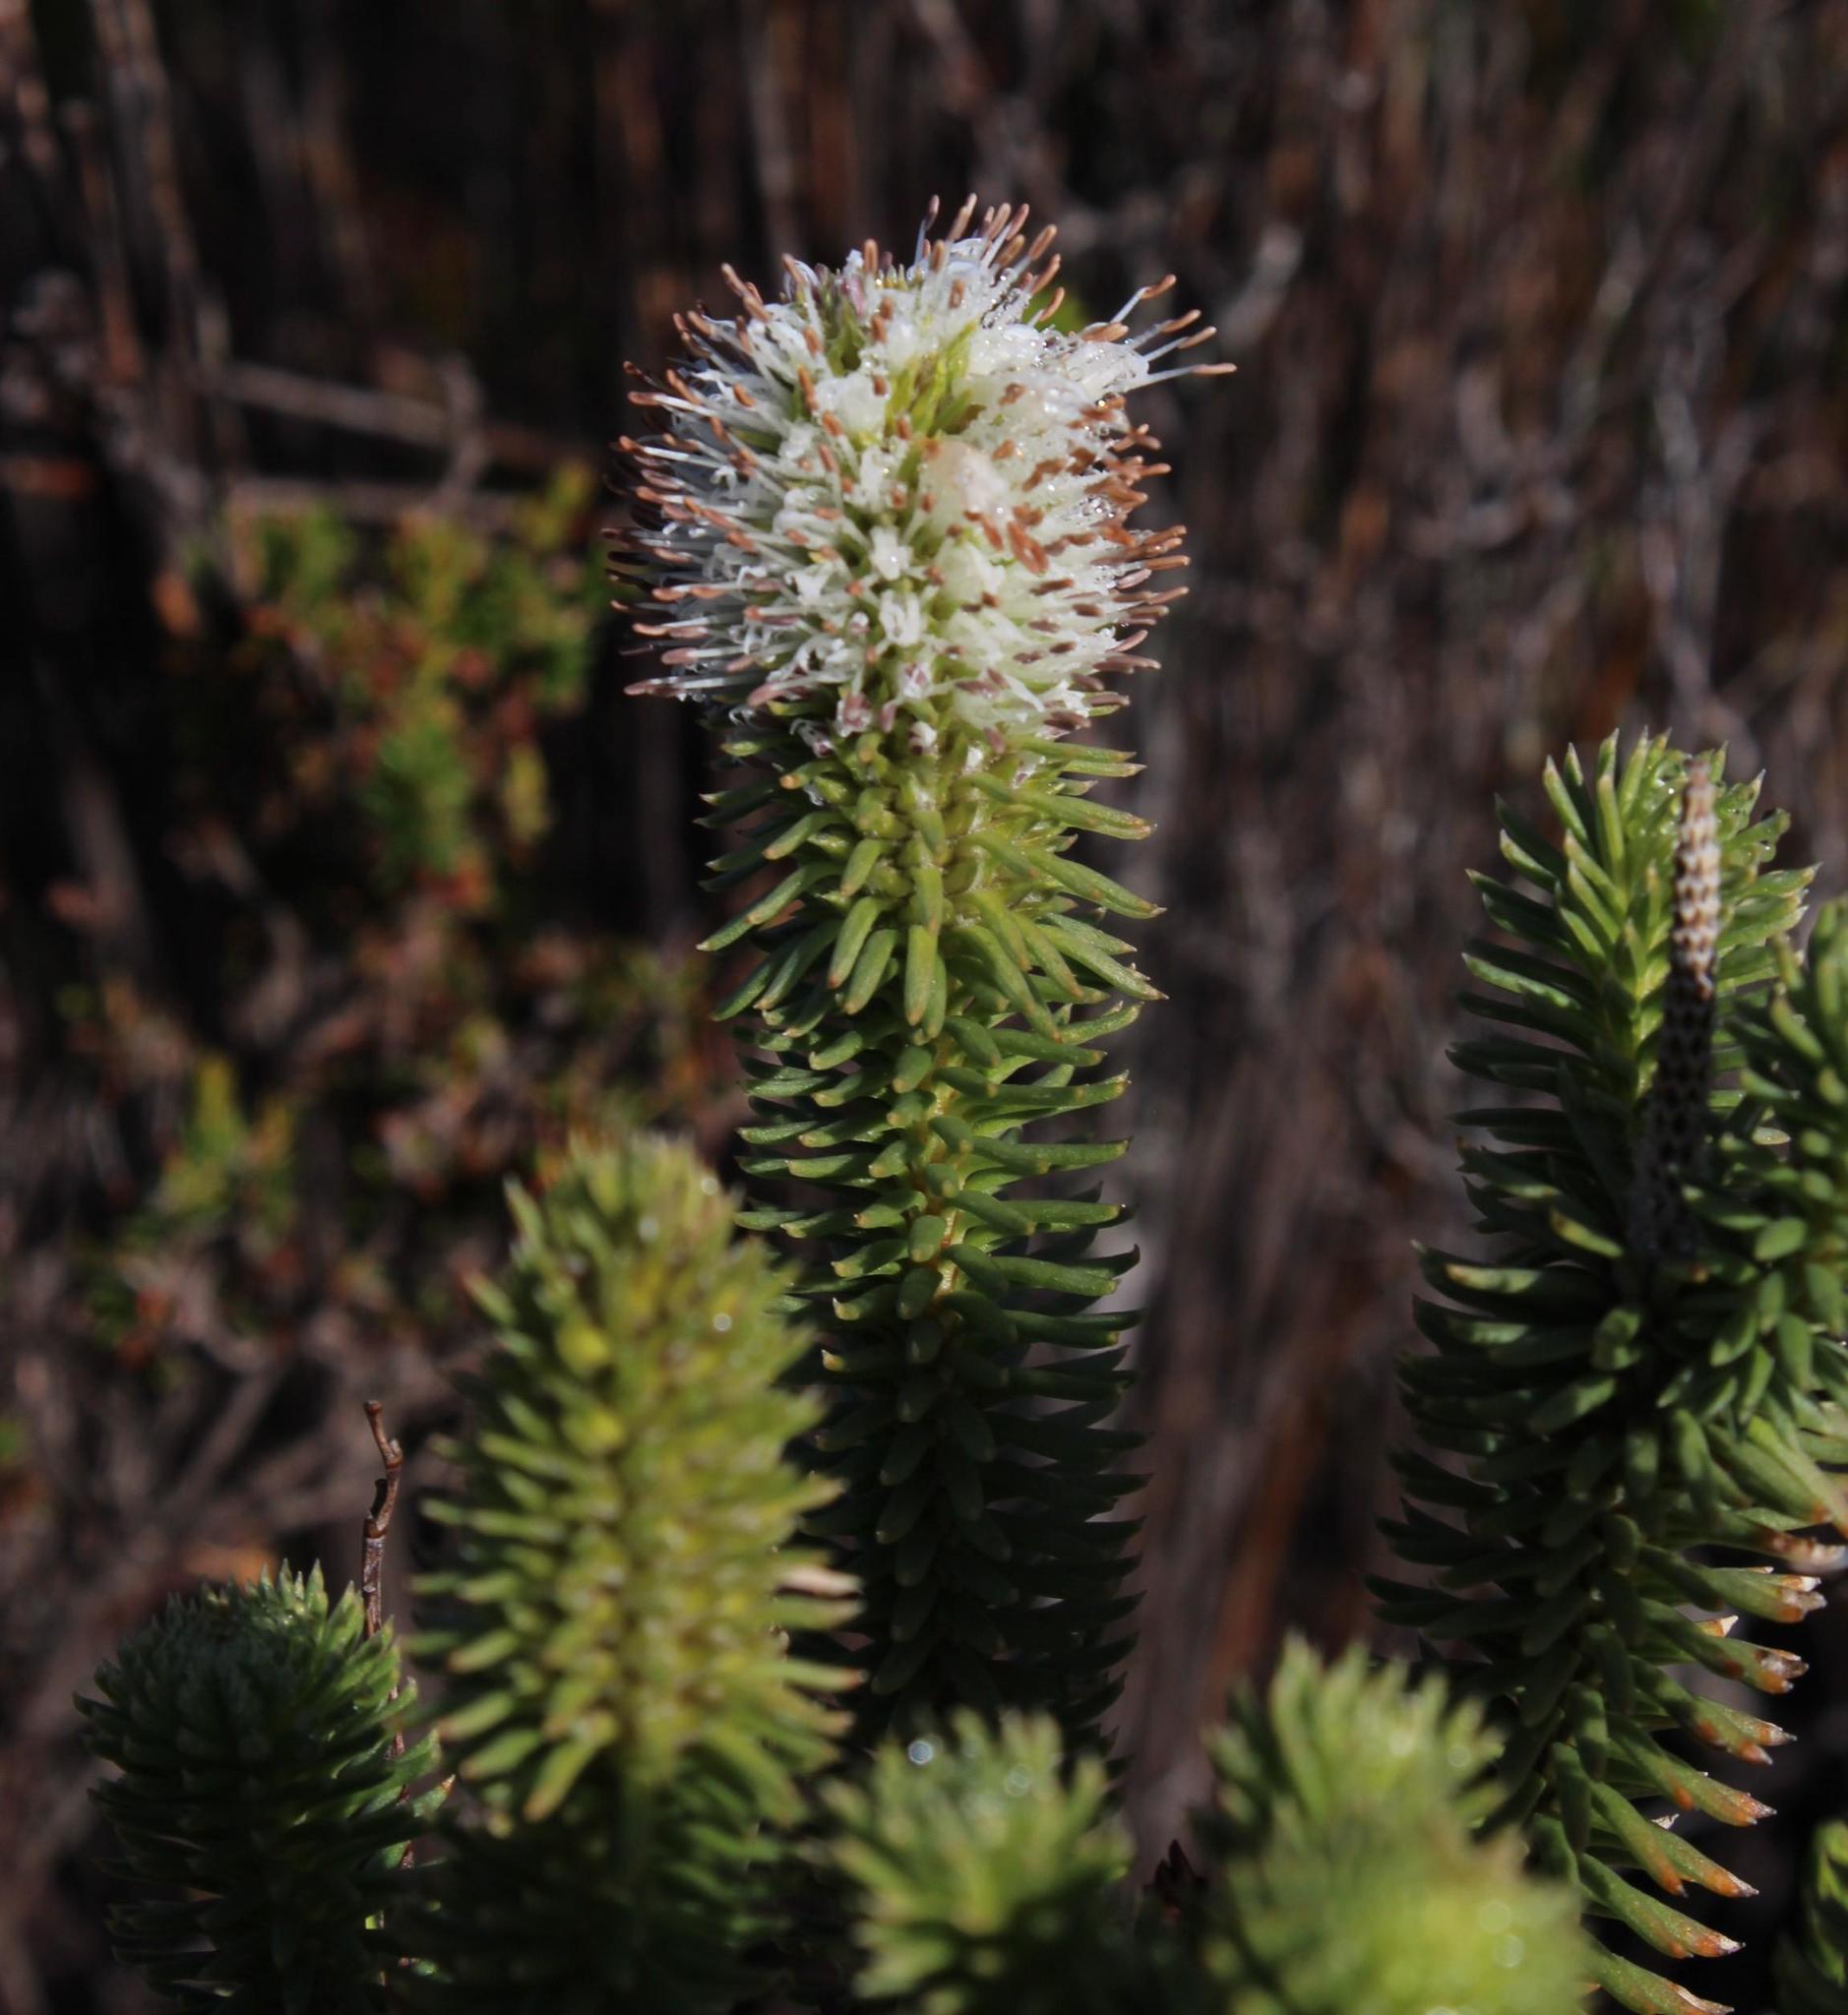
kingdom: Plantae
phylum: Tracheophyta
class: Magnoliopsida
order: Lamiales
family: Stilbaceae
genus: Stilbe
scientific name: Stilbe vestita
